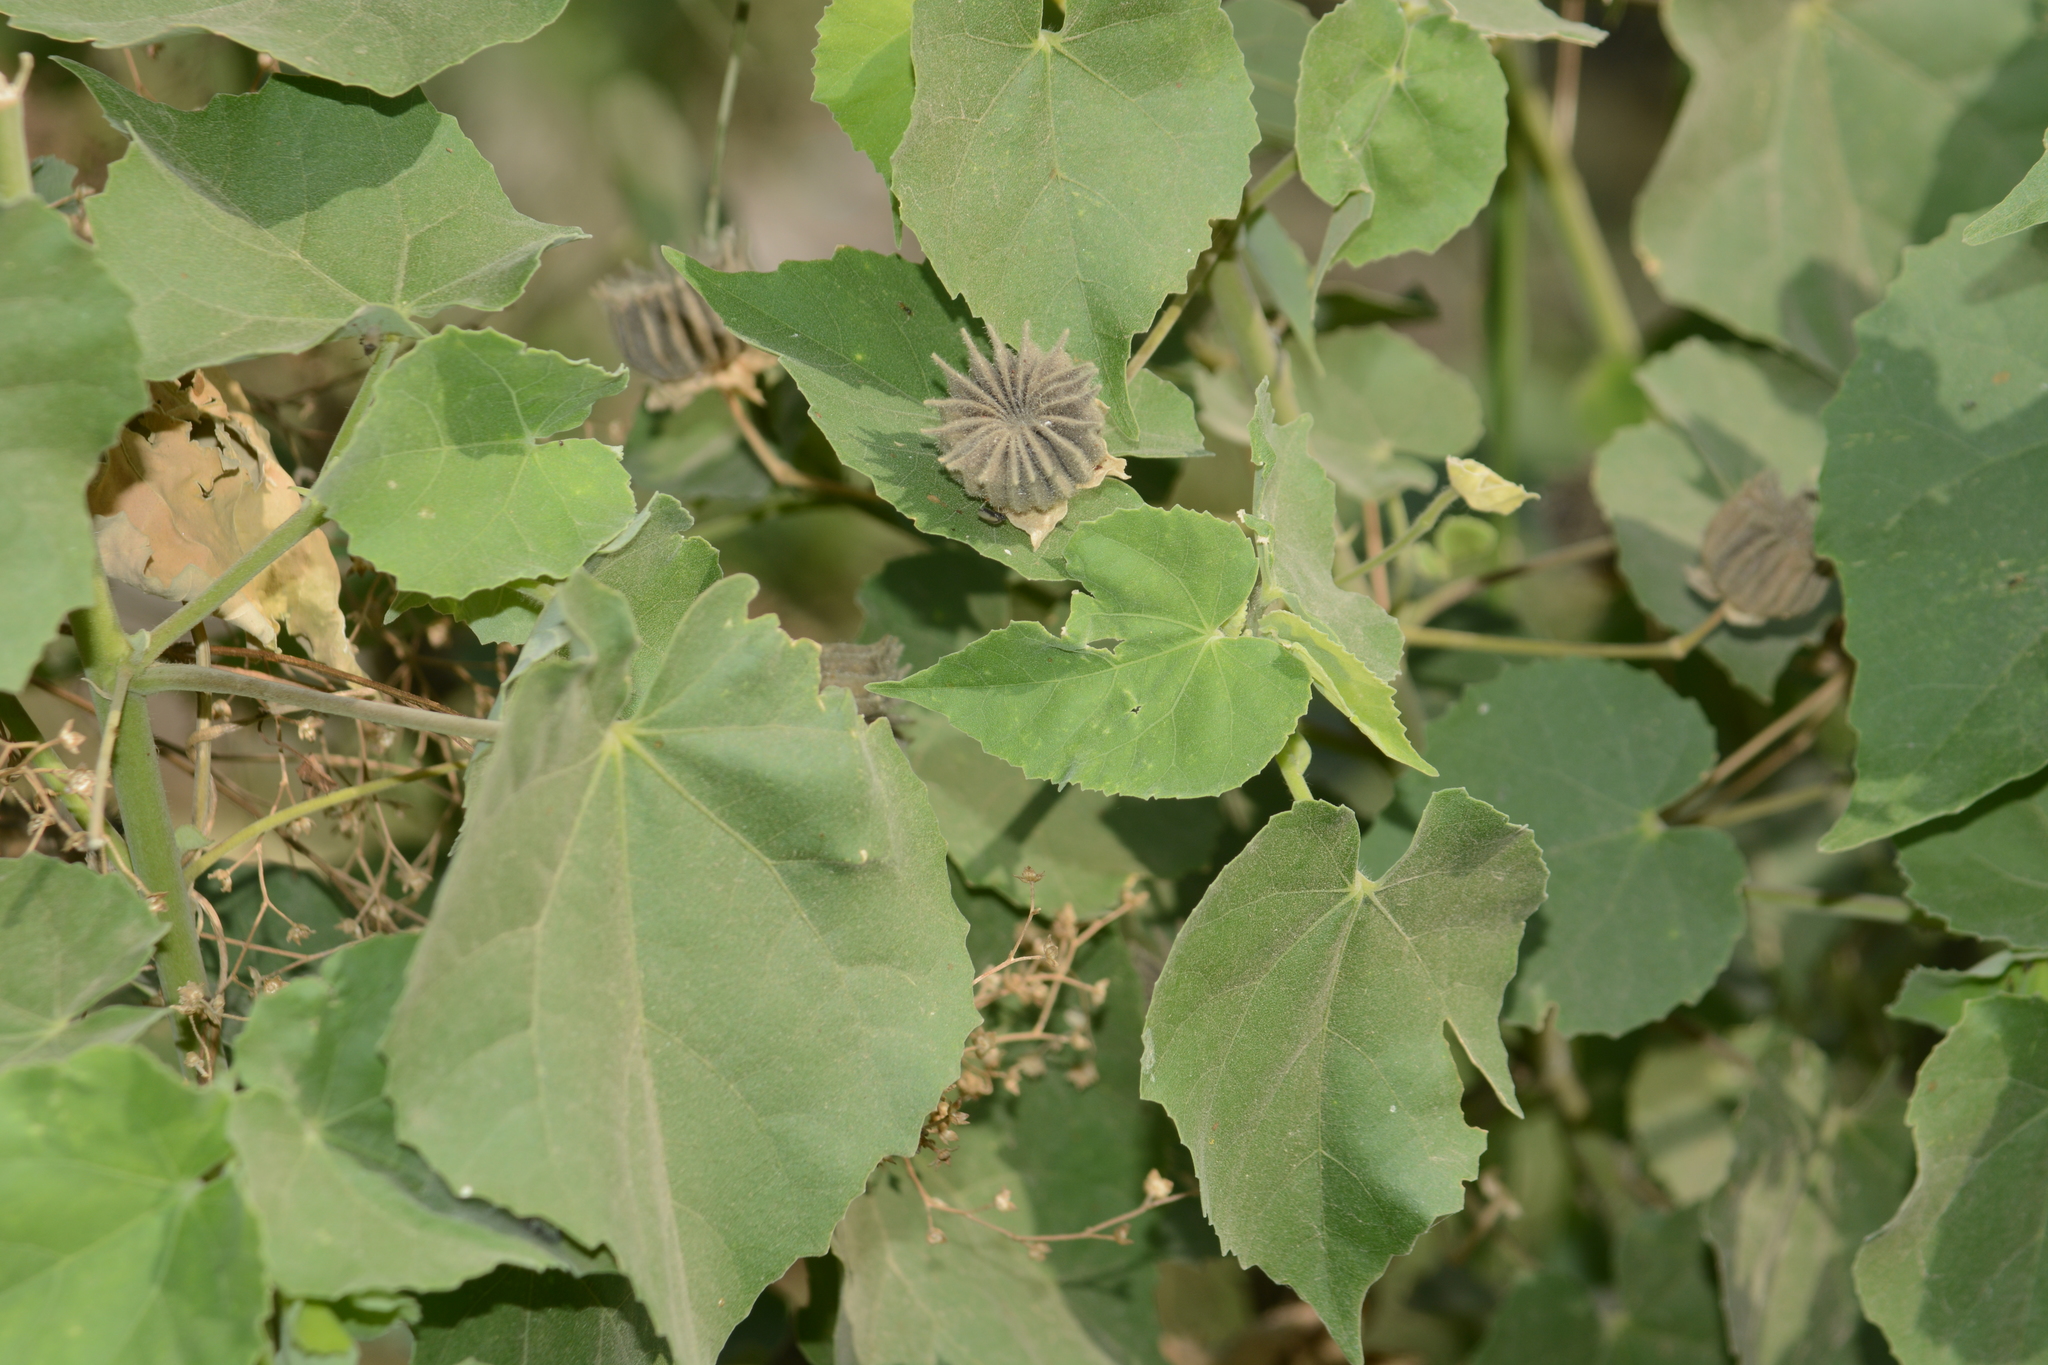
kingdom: Plantae
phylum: Tracheophyta
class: Magnoliopsida
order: Malvales
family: Malvaceae
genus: Abutilon
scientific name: Abutilon indicum
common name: Indian abutilon
